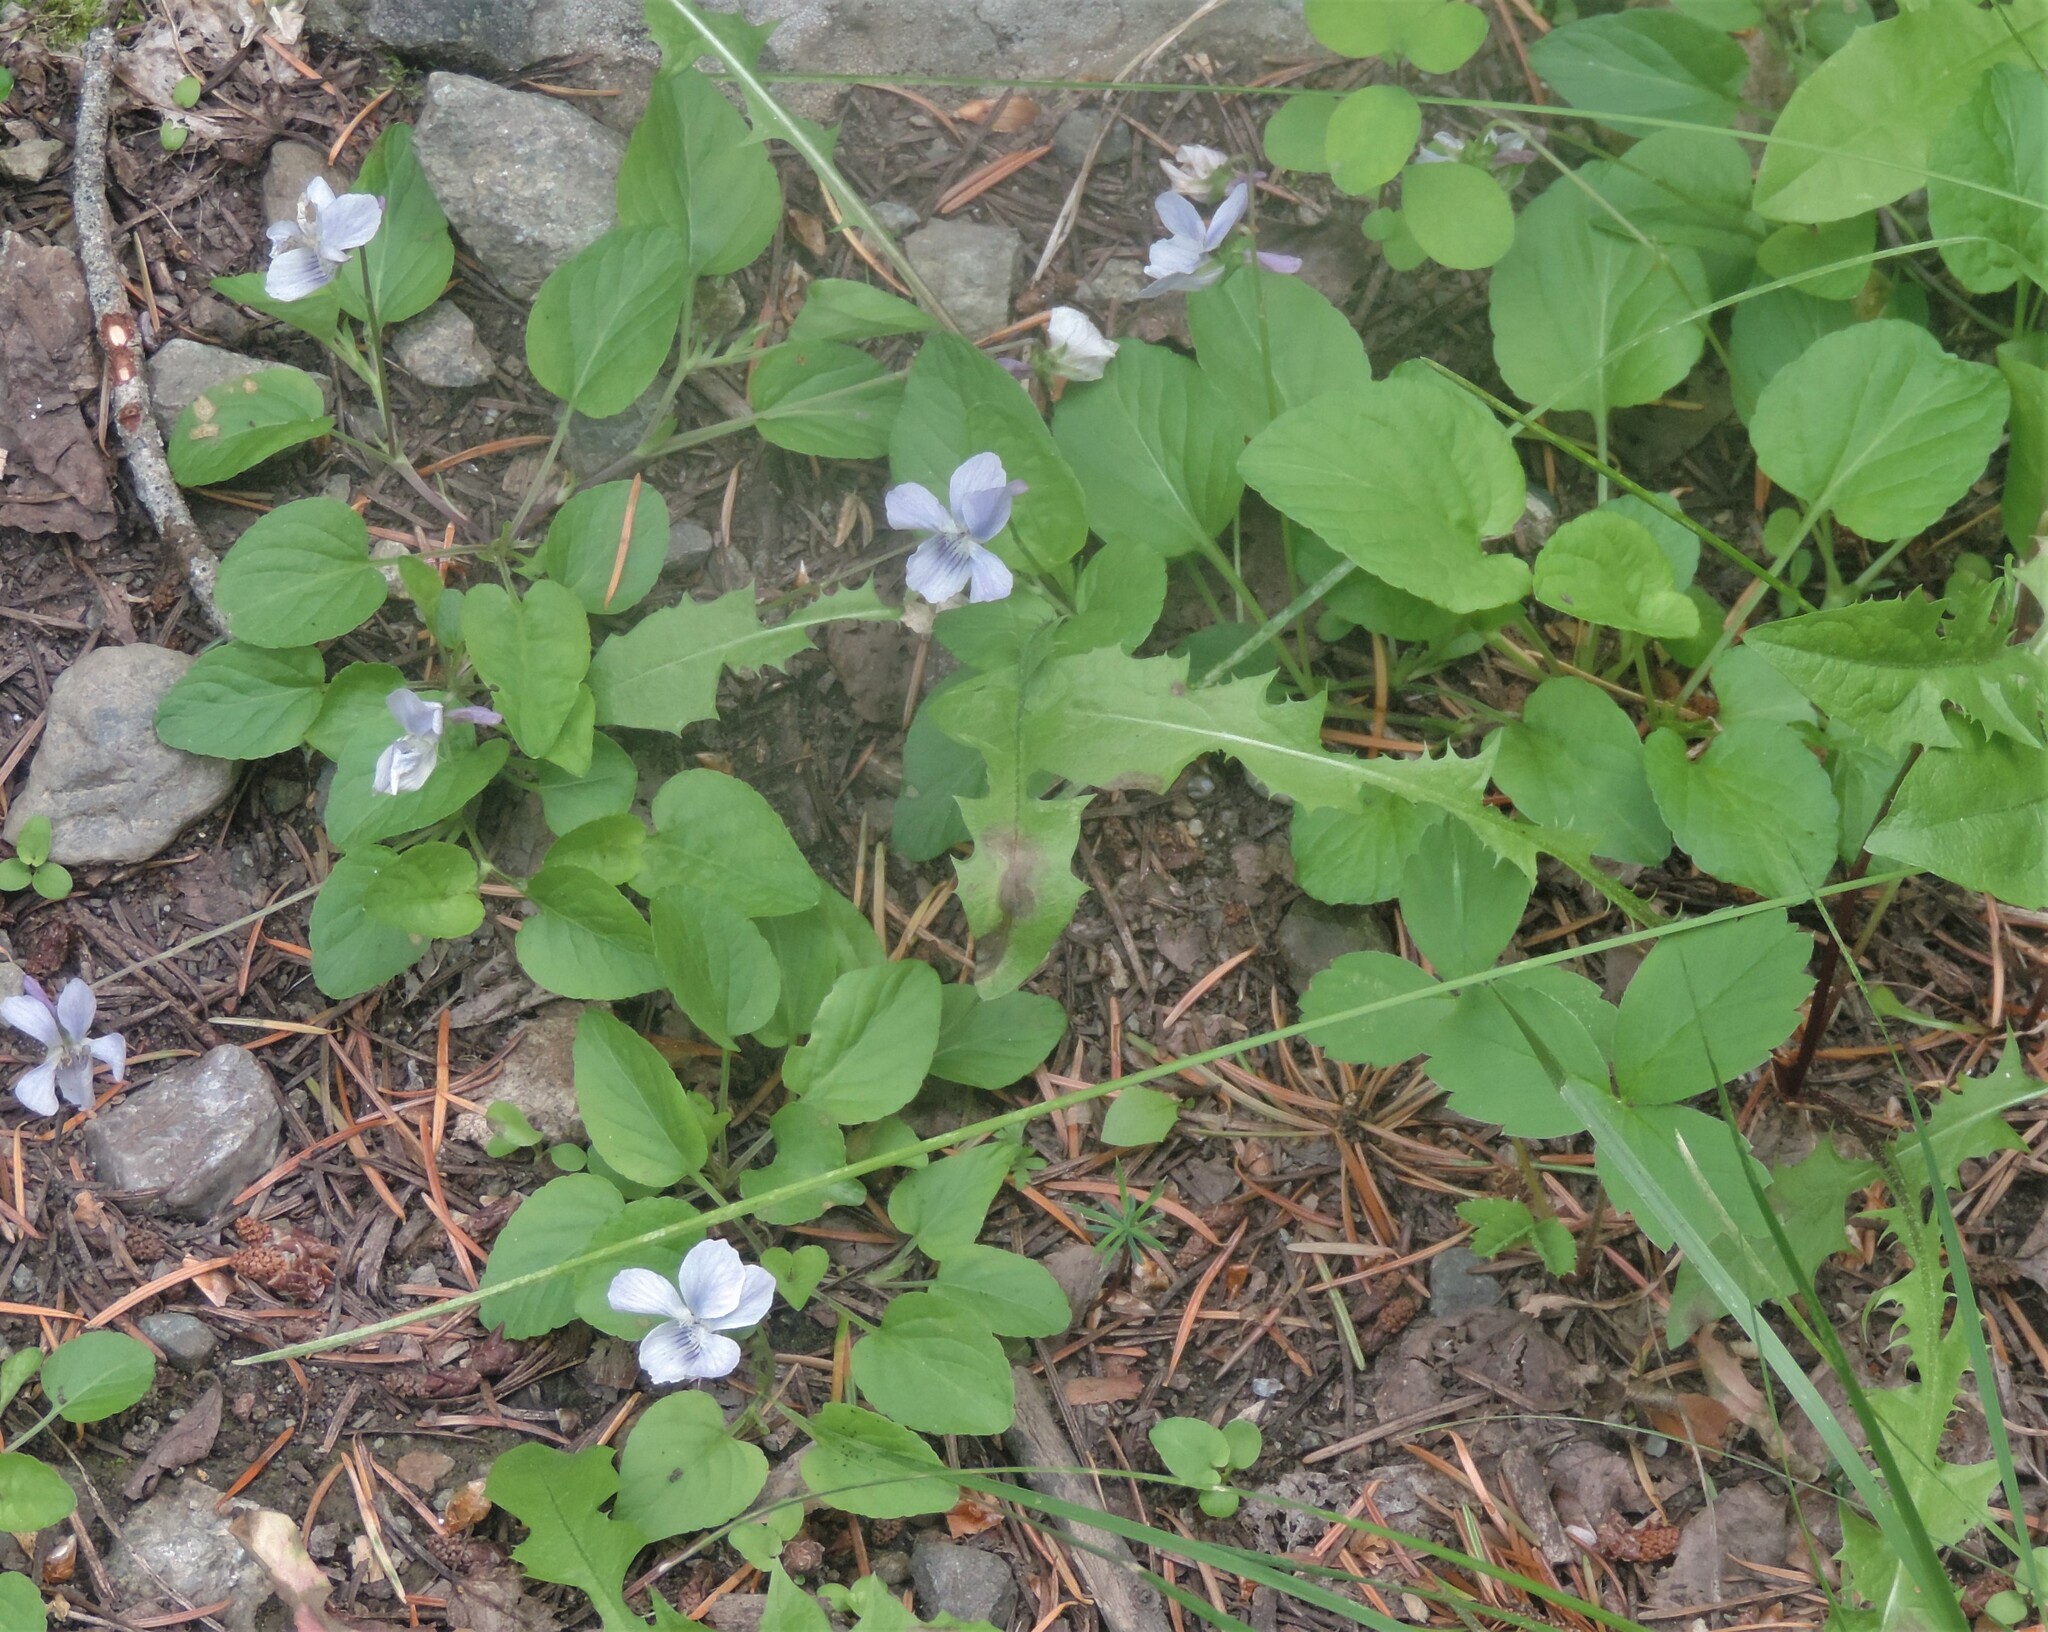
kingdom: Plantae
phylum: Tracheophyta
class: Magnoliopsida
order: Malpighiales
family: Violaceae
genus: Viola
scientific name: Viola adunca
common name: Sand violet
